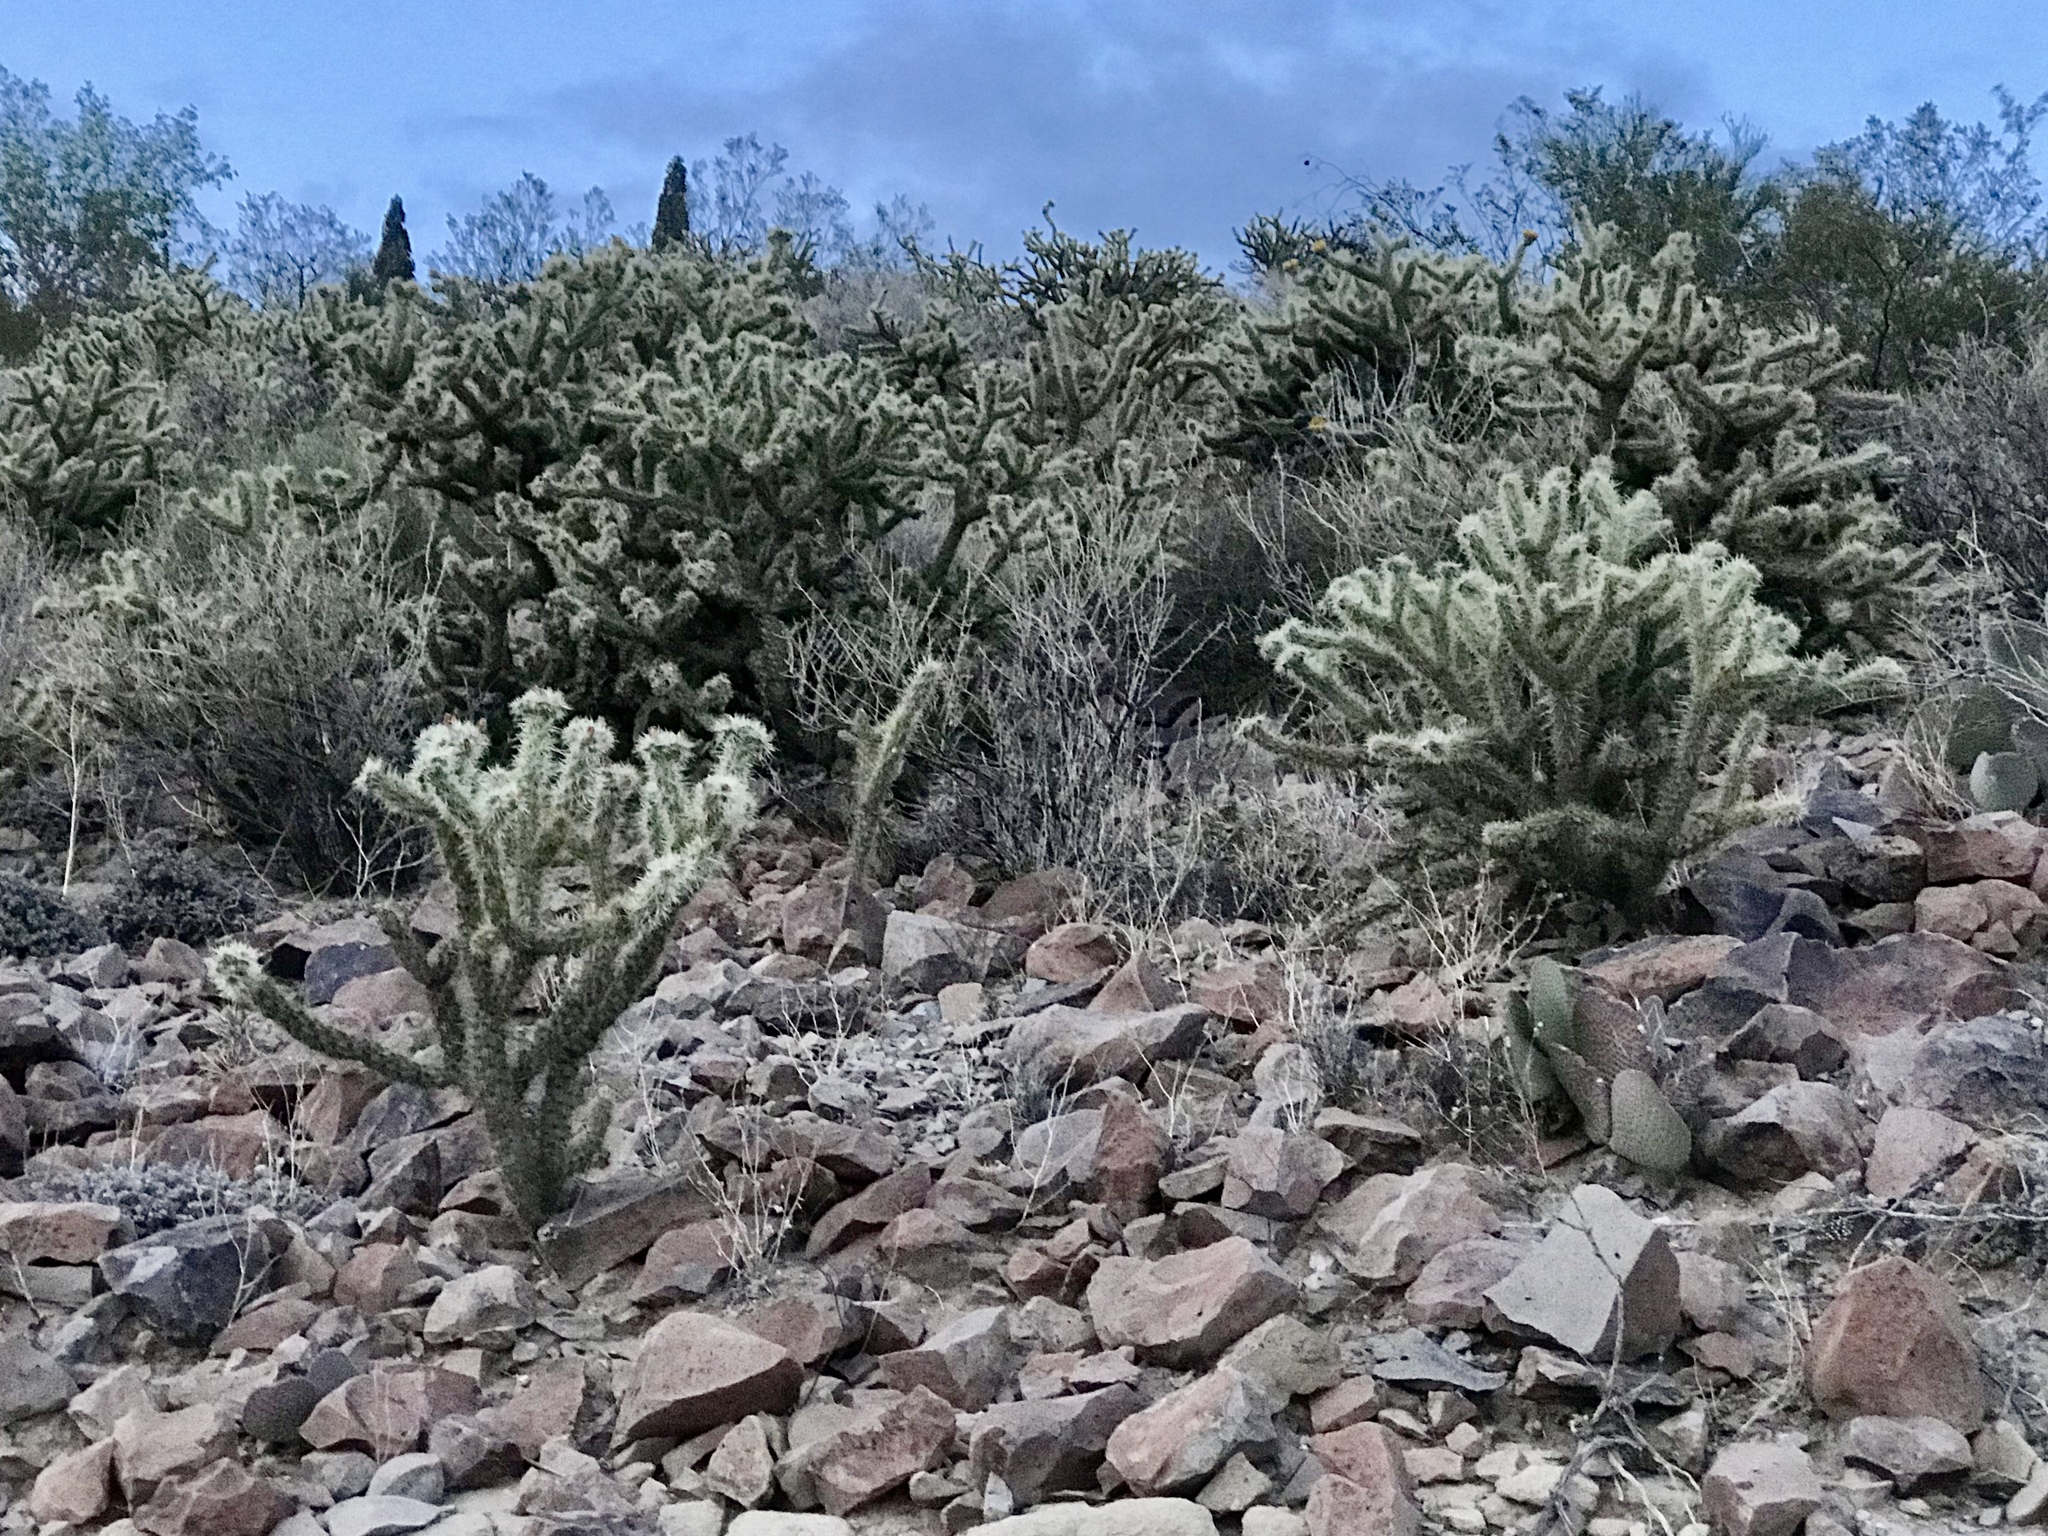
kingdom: Plantae
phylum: Tracheophyta
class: Magnoliopsida
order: Caryophyllales
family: Cactaceae
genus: Cylindropuntia
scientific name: Cylindropuntia acanthocarpa
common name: Buckhorn cholla
